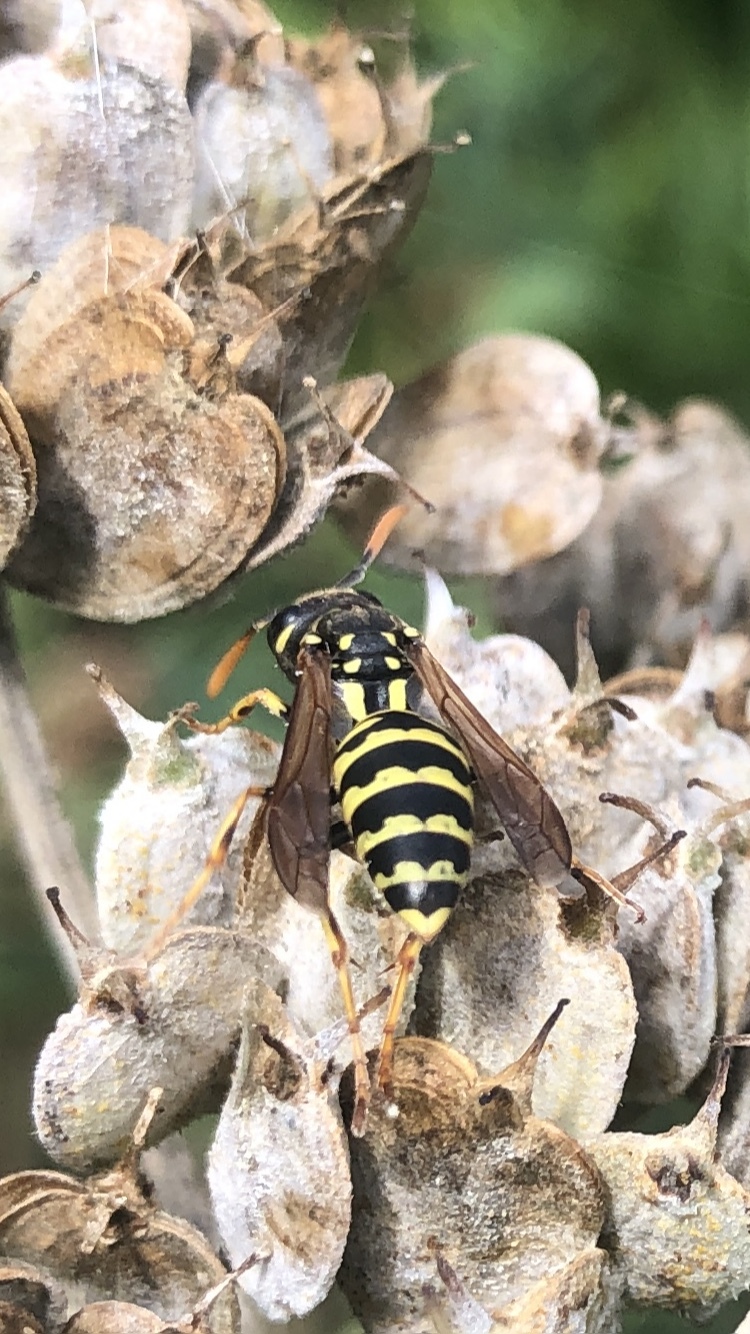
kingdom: Animalia
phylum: Arthropoda
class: Insecta
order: Hymenoptera
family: Eumenidae
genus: Polistes
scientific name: Polistes dominula
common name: Paper wasp
